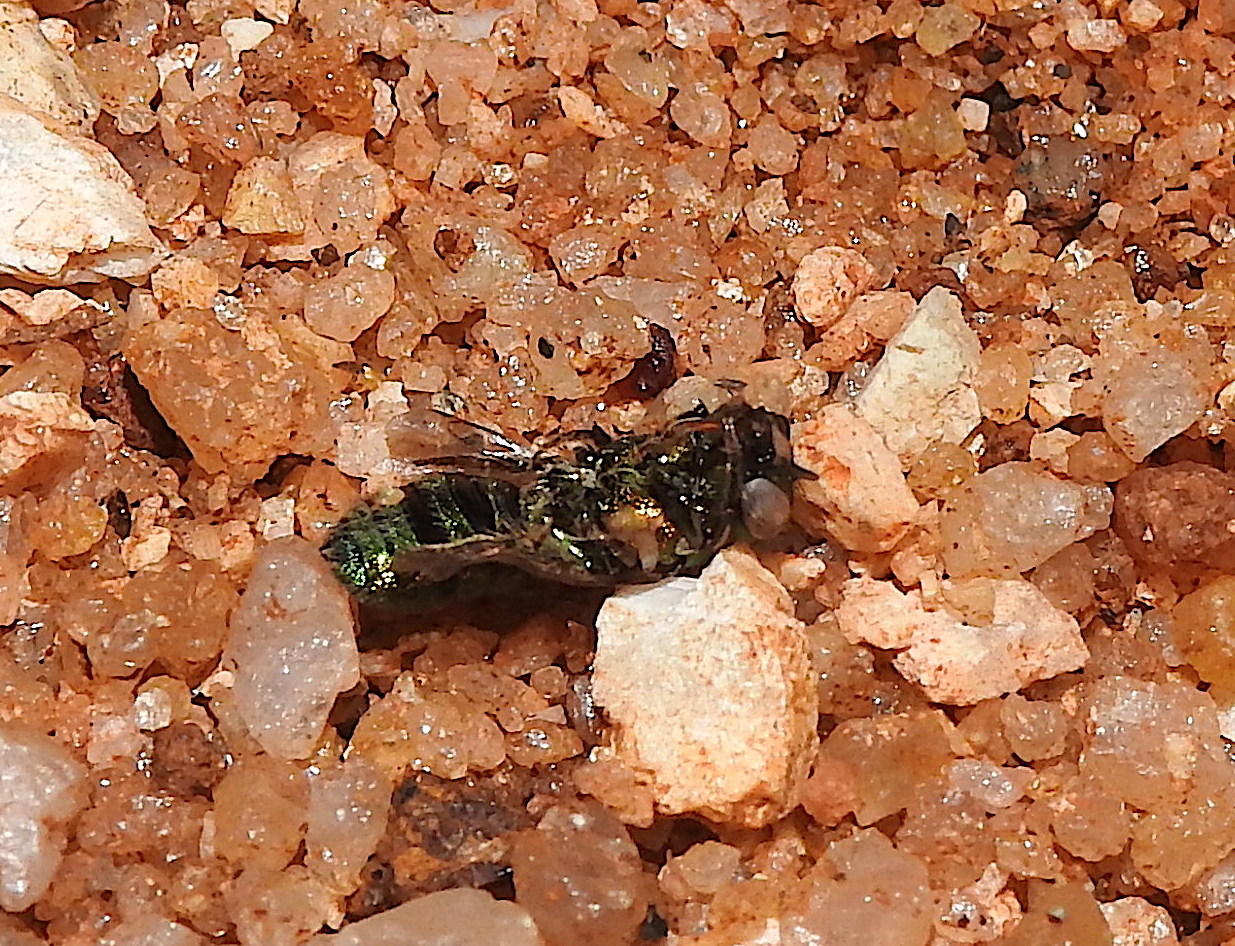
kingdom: Animalia
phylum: Arthropoda
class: Insecta
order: Hymenoptera
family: Apidae
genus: Pithitis
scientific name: Pithitis
